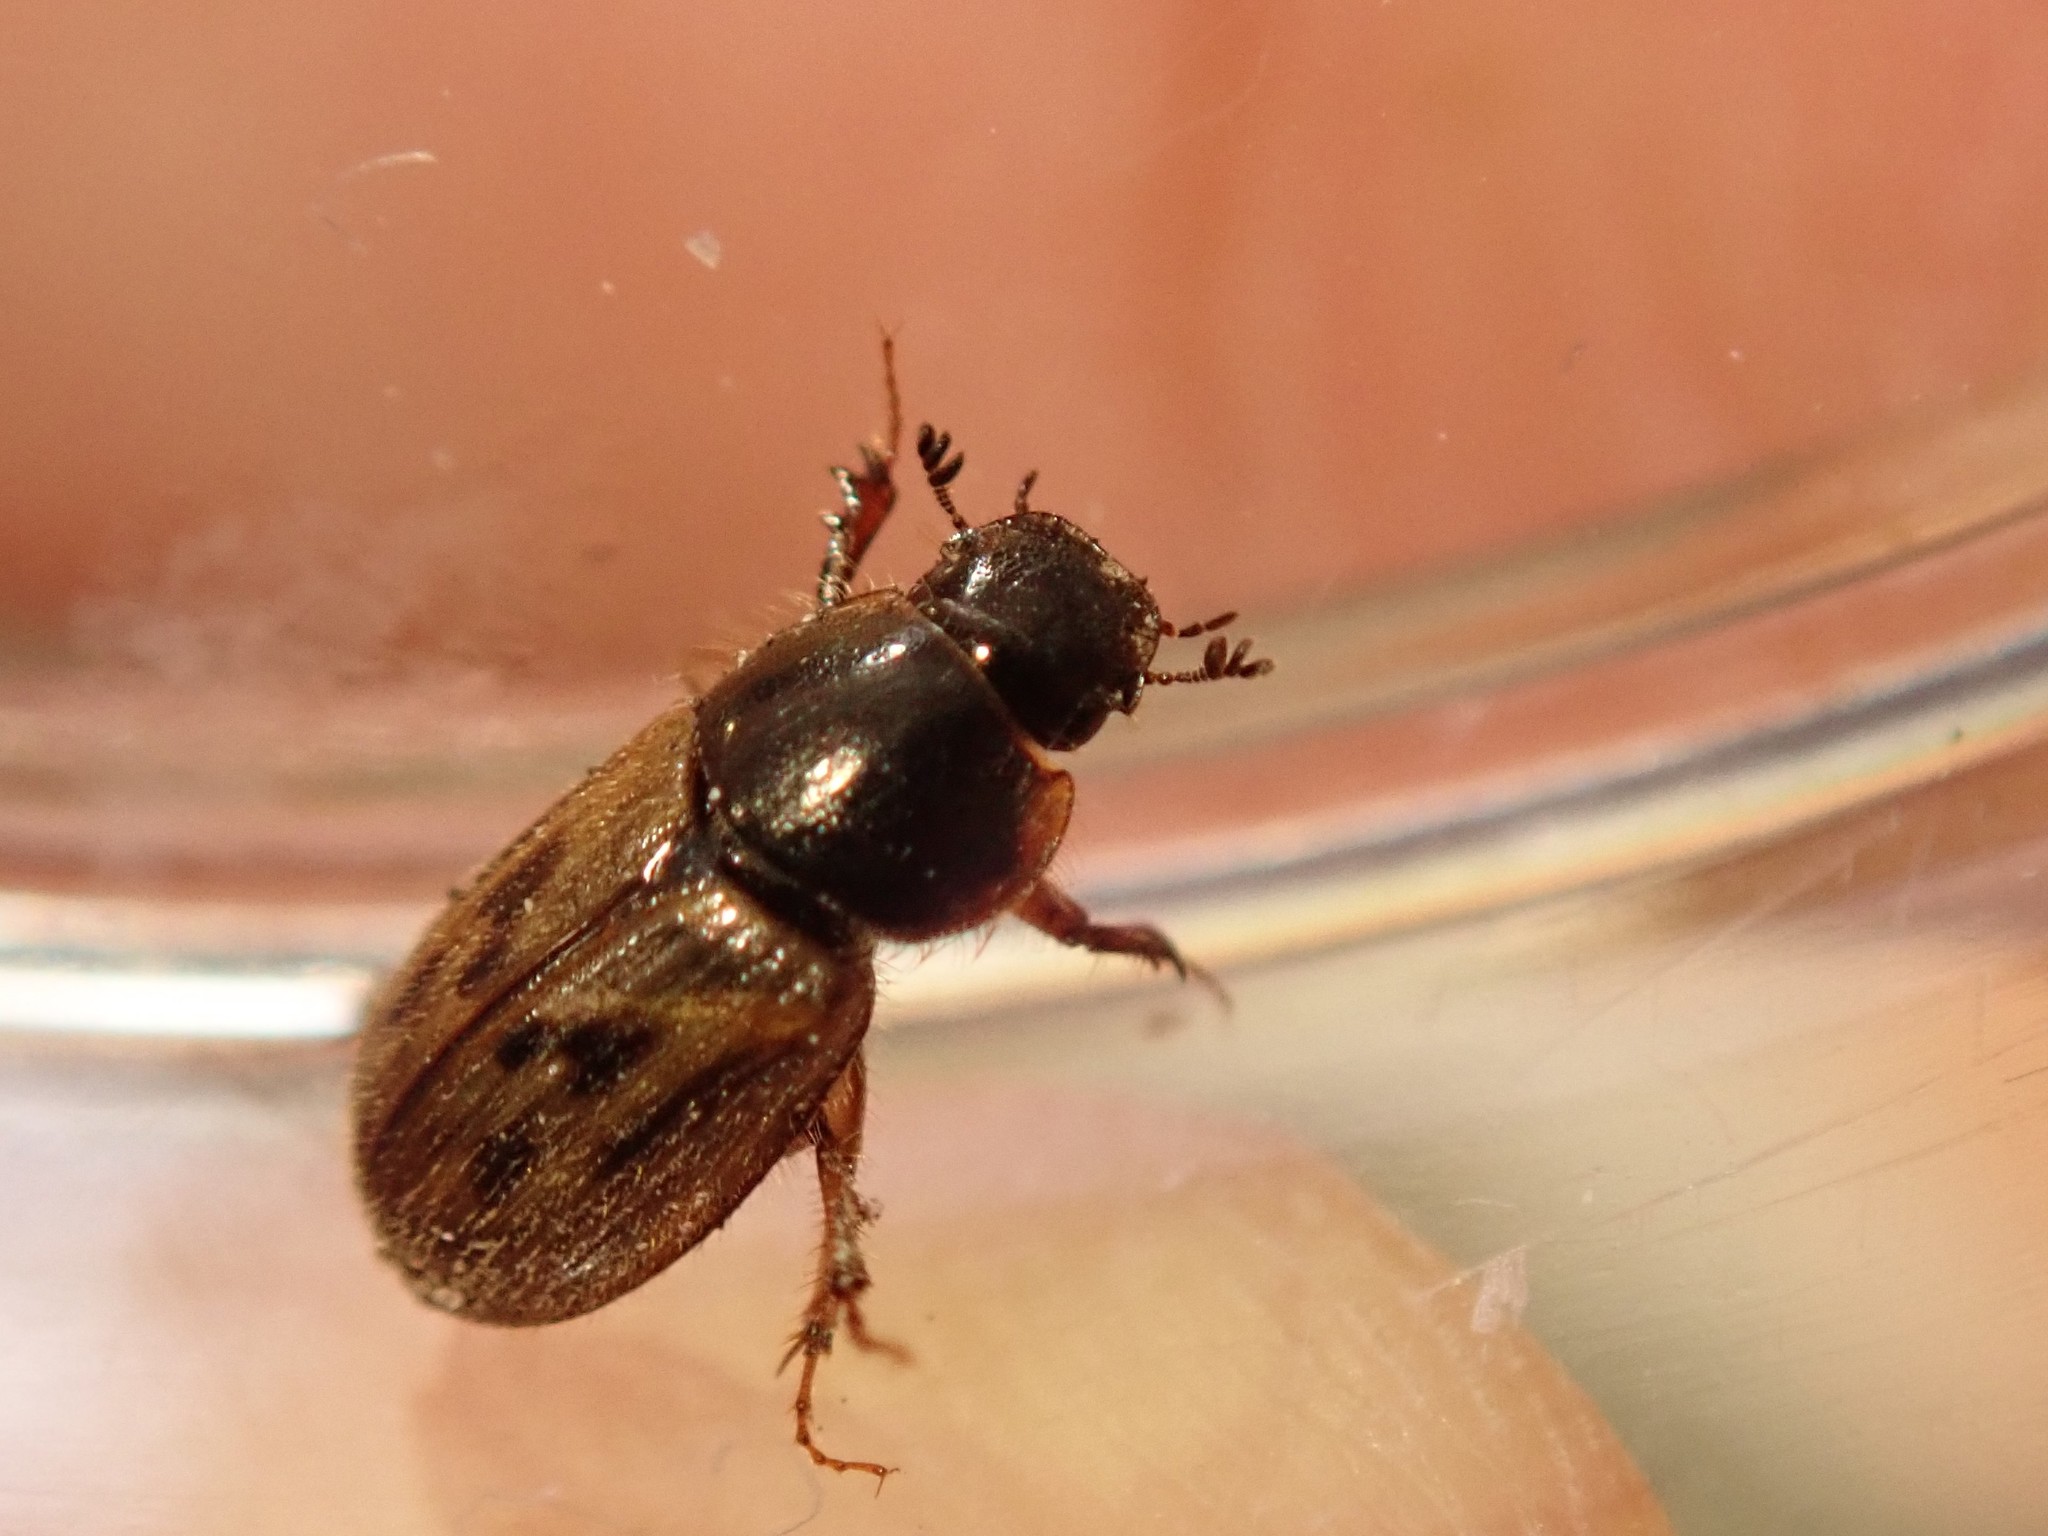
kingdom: Animalia
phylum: Arthropoda
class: Insecta
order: Coleoptera
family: Scarabaeidae
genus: Nimbus
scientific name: Nimbus contaminatus
